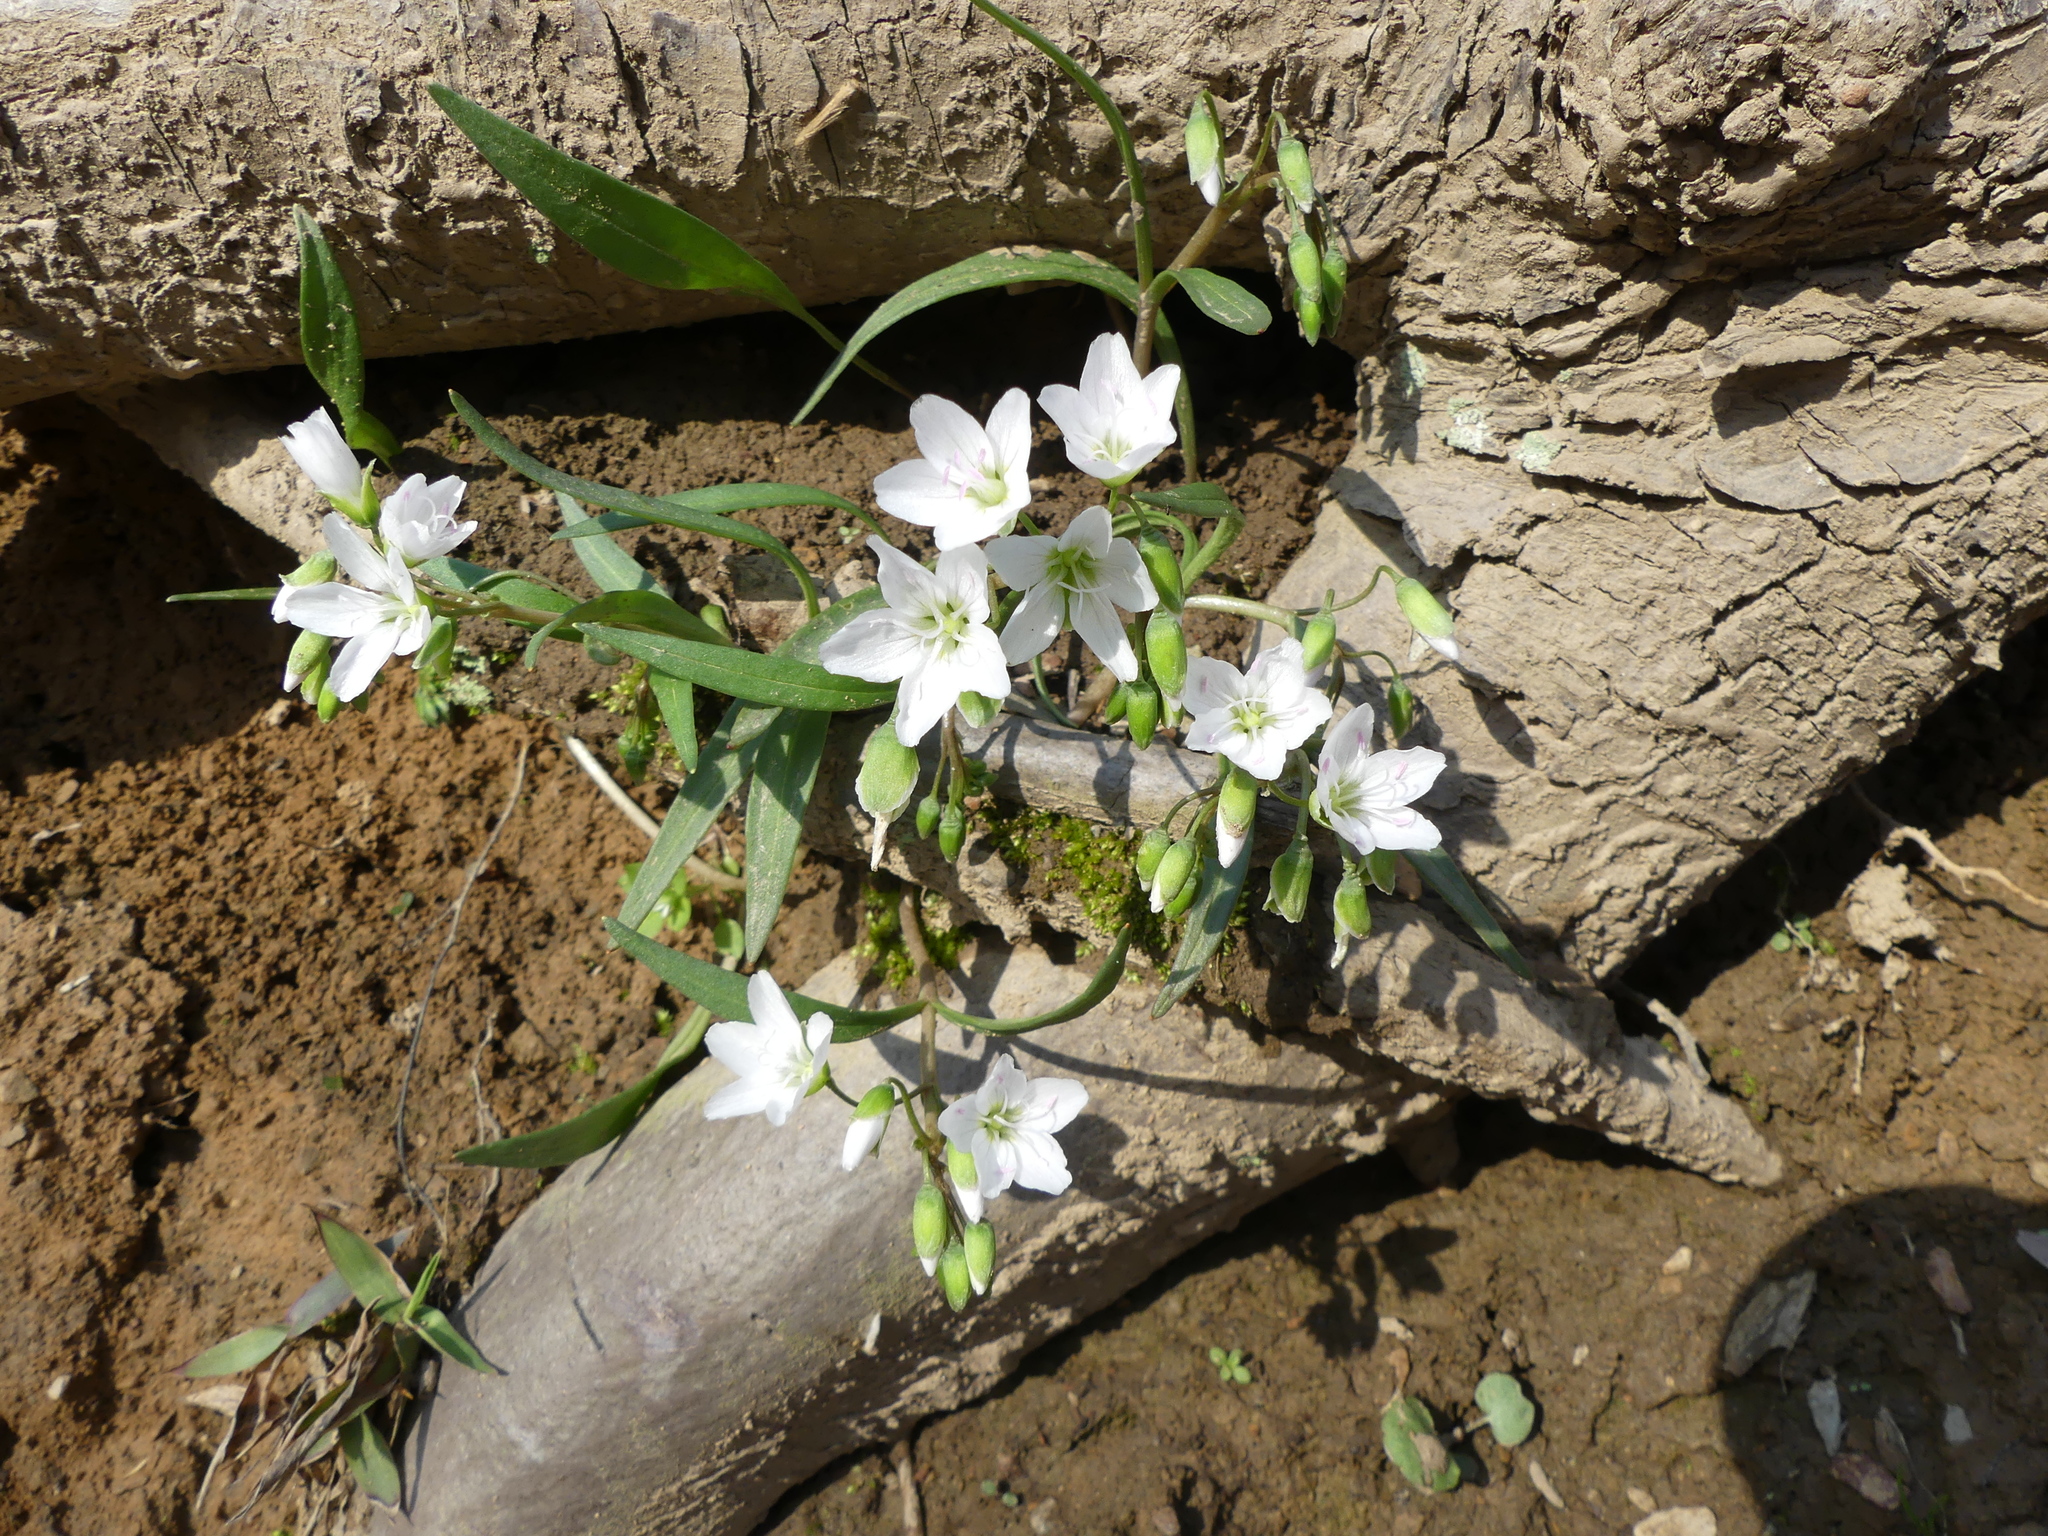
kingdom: Plantae
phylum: Tracheophyta
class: Magnoliopsida
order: Caryophyllales
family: Montiaceae
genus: Claytonia
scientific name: Claytonia virginica
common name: Virginia springbeauty
